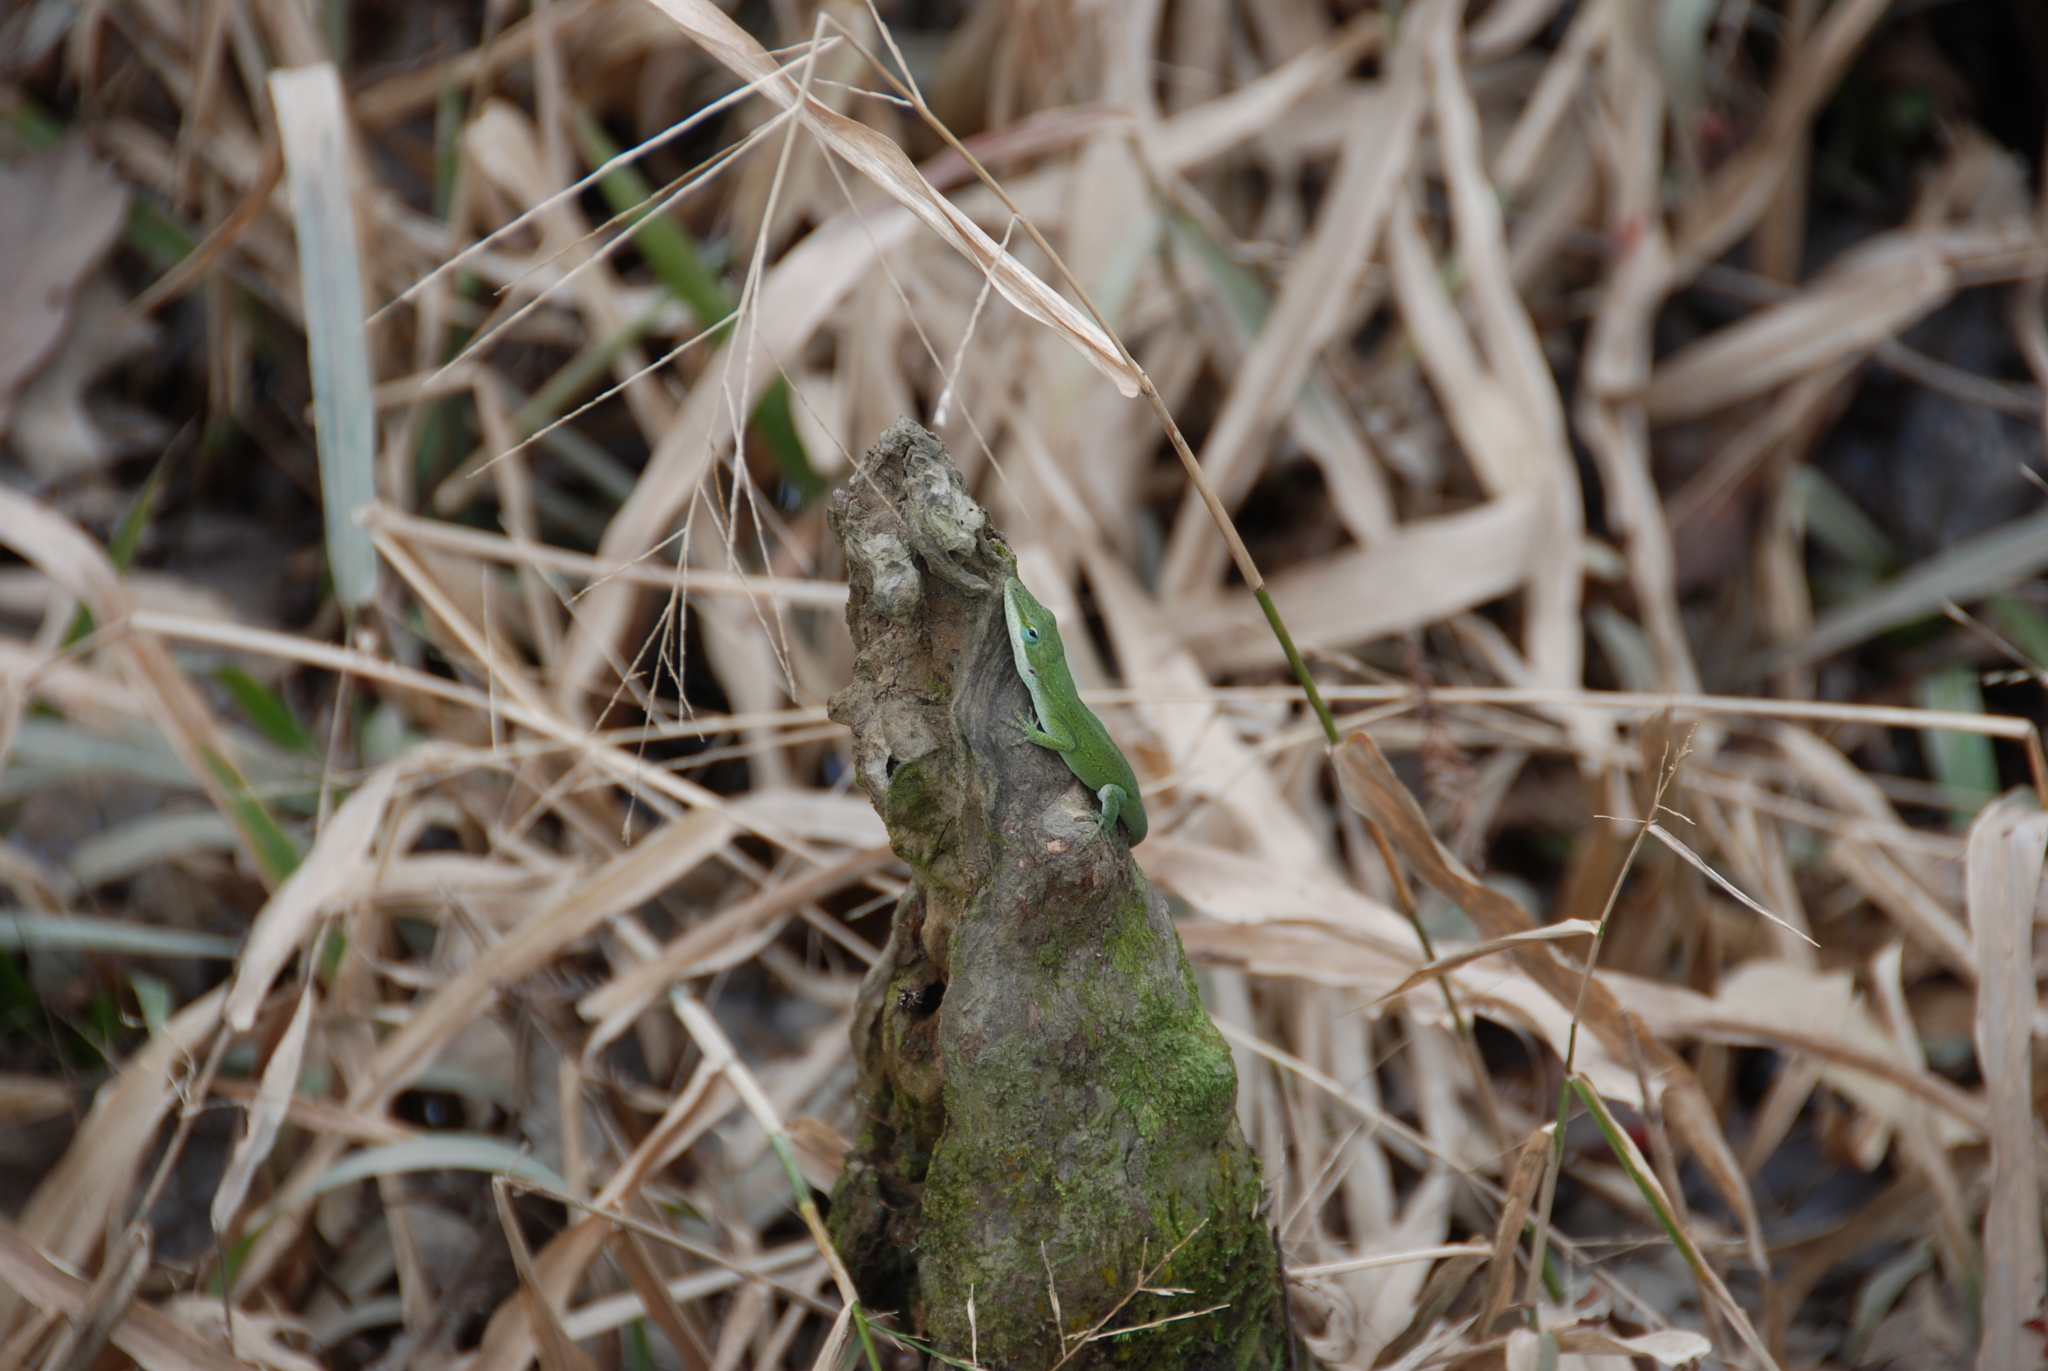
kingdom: Animalia
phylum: Chordata
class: Squamata
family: Dactyloidae
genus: Anolis
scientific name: Anolis carolinensis
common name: Green anole
